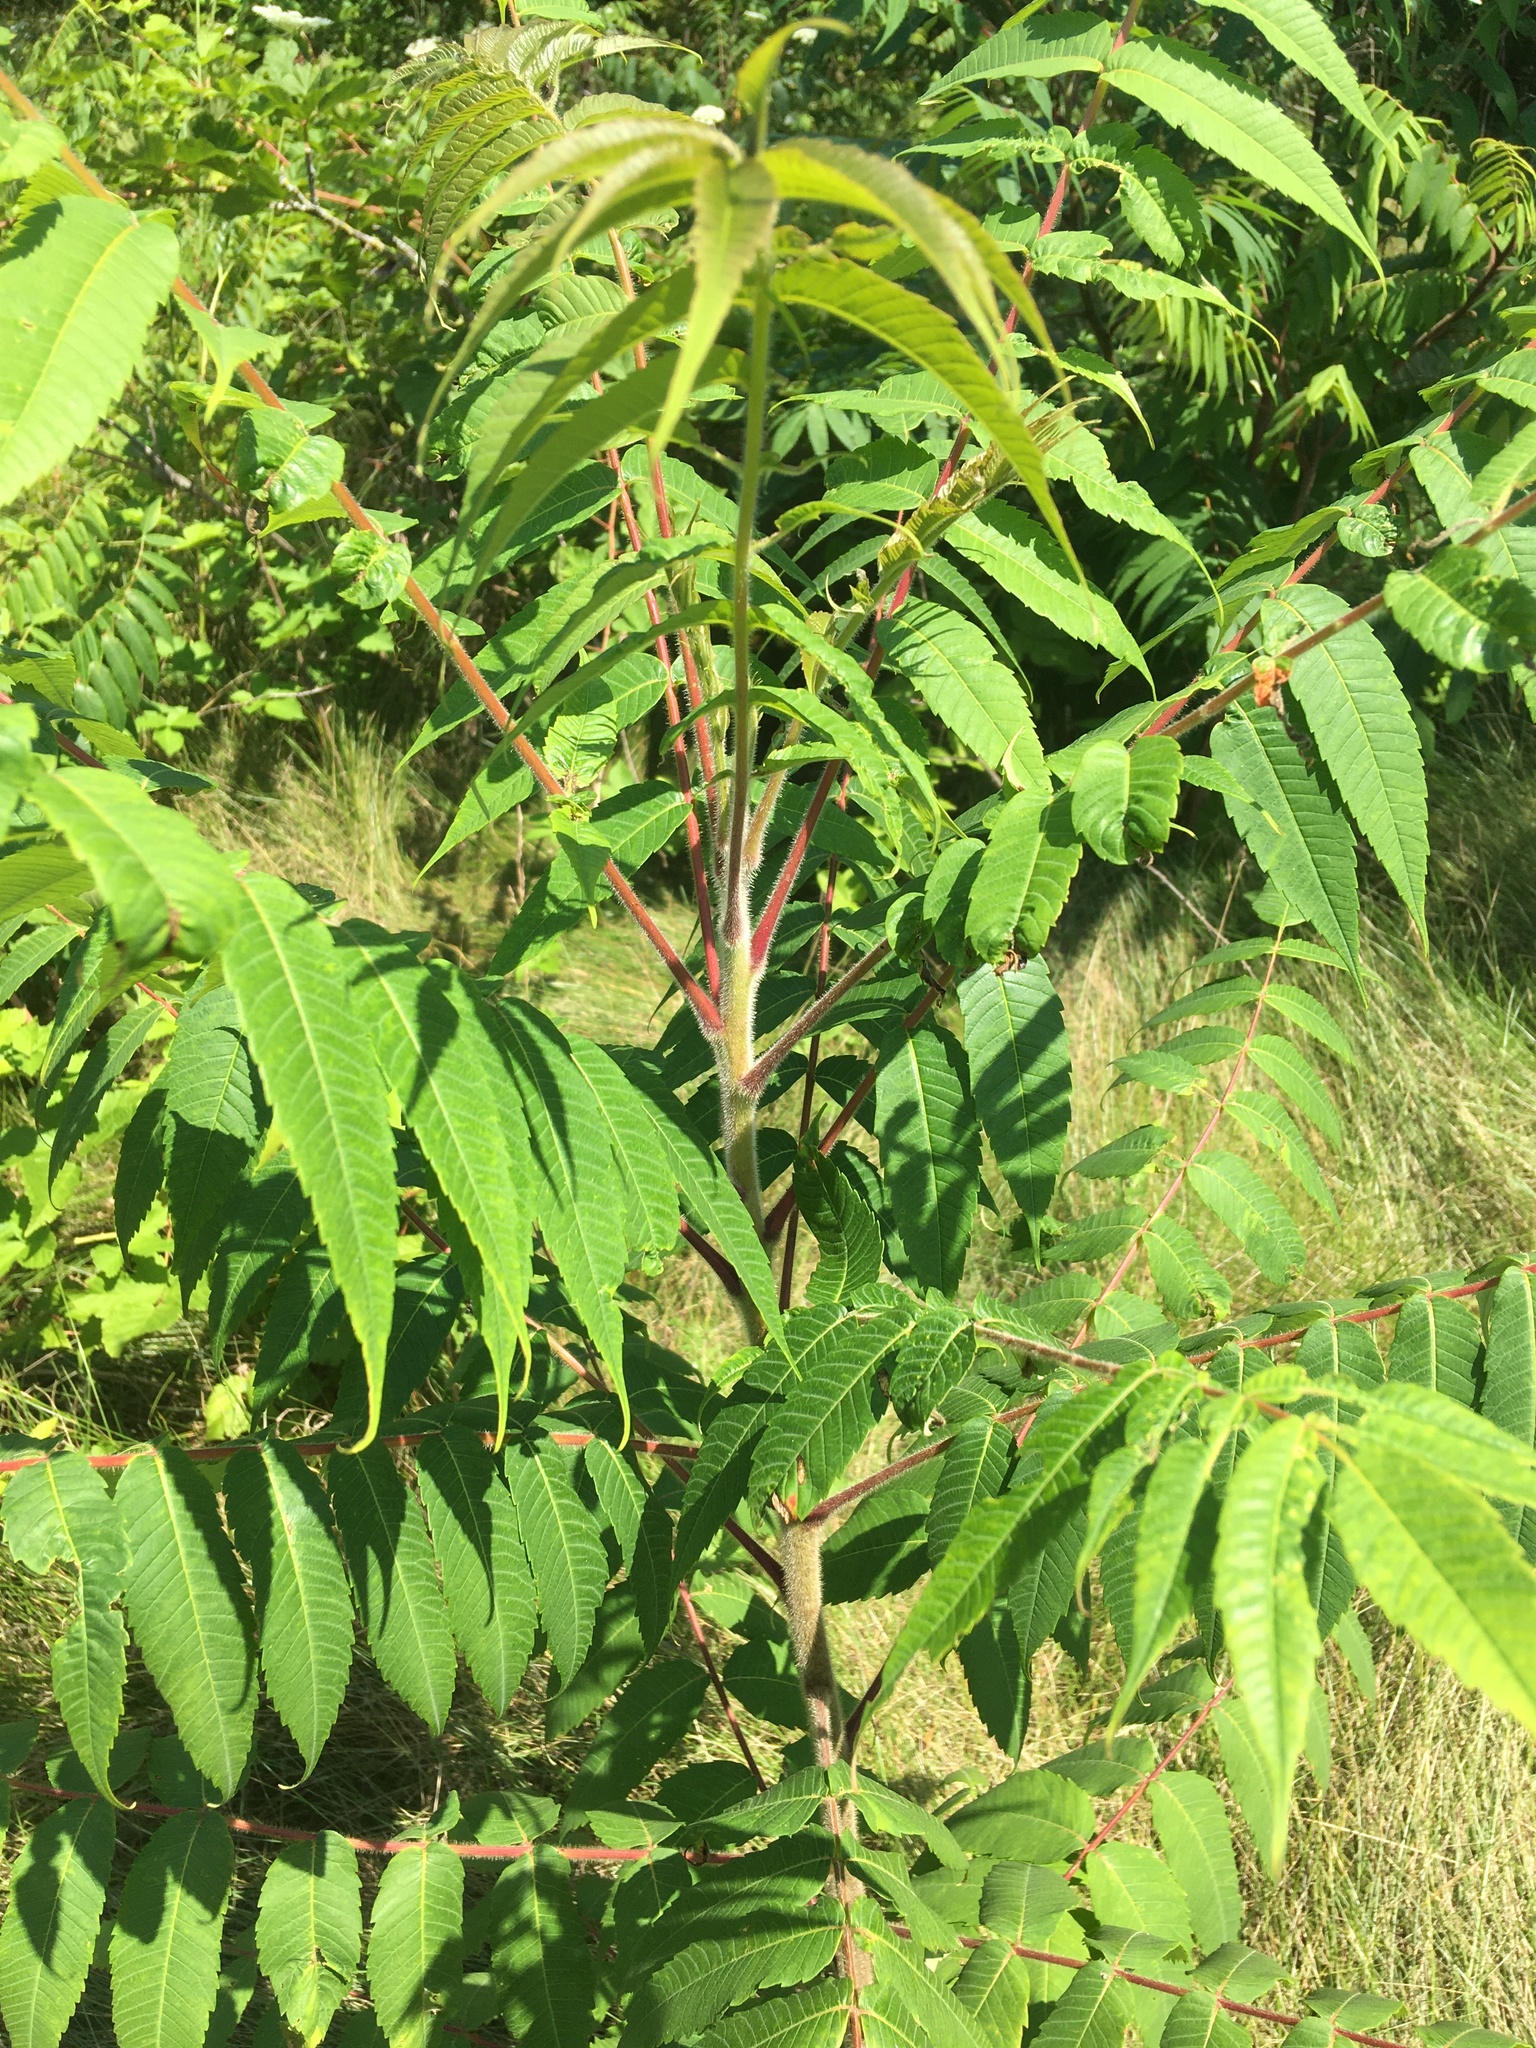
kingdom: Plantae
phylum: Tracheophyta
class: Magnoliopsida
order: Sapindales
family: Anacardiaceae
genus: Rhus
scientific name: Rhus typhina
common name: Staghorn sumac
